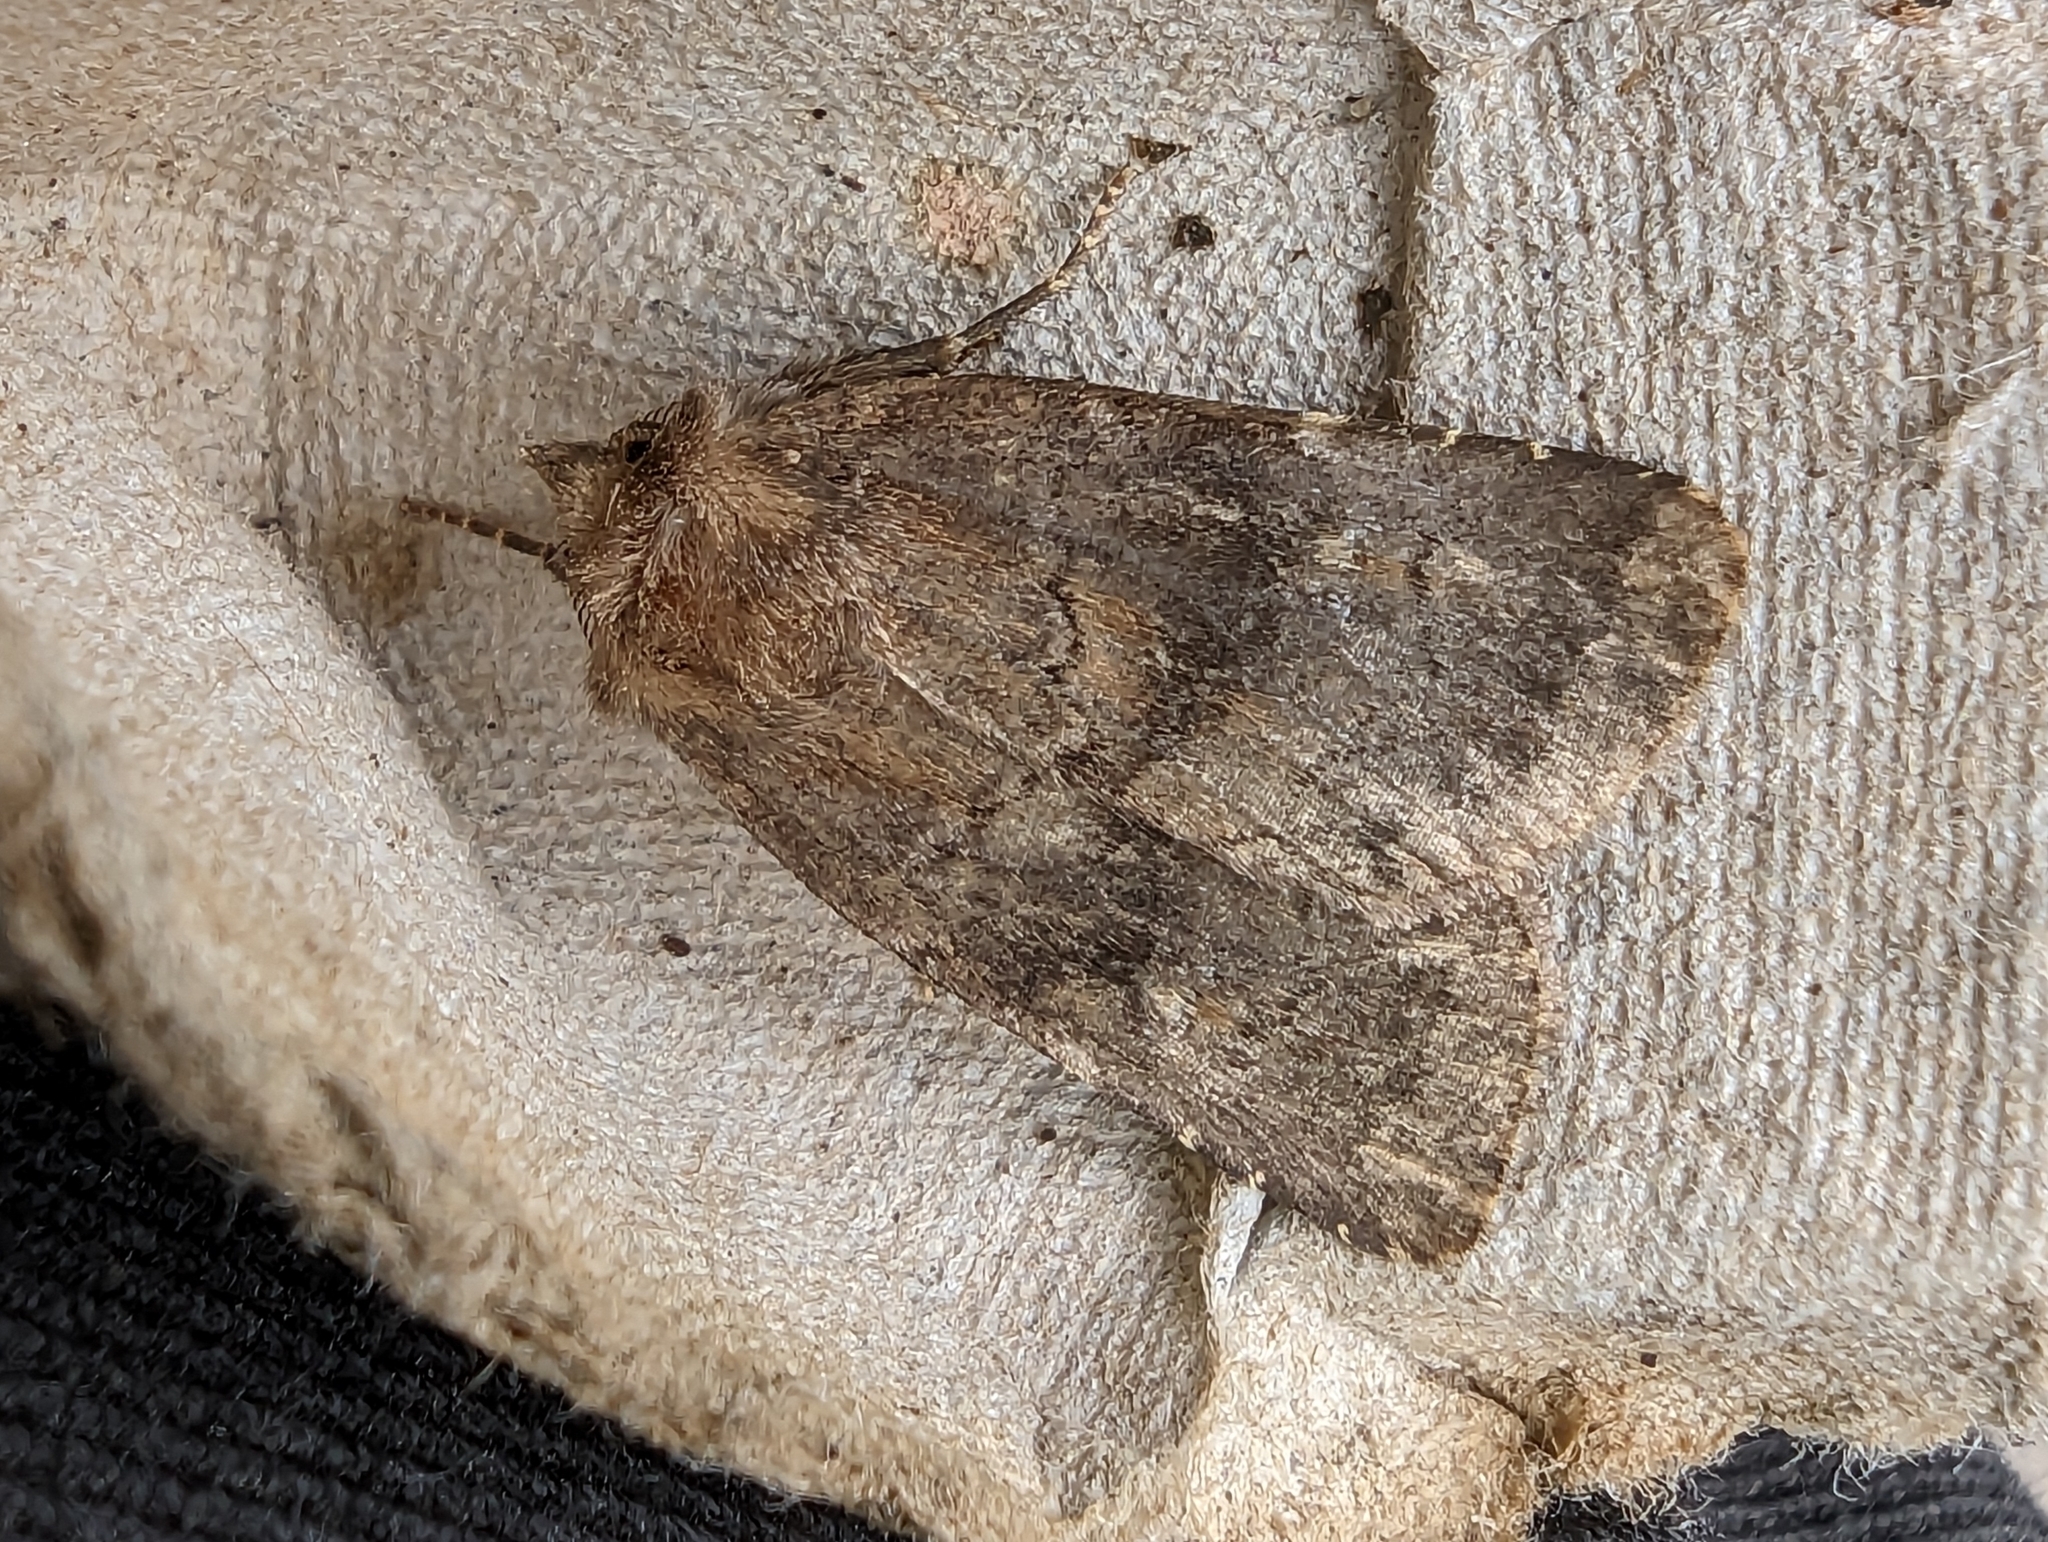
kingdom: Animalia
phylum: Arthropoda
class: Insecta
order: Lepidoptera
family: Noctuidae
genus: Charanyca
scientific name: Charanyca ferruginea
